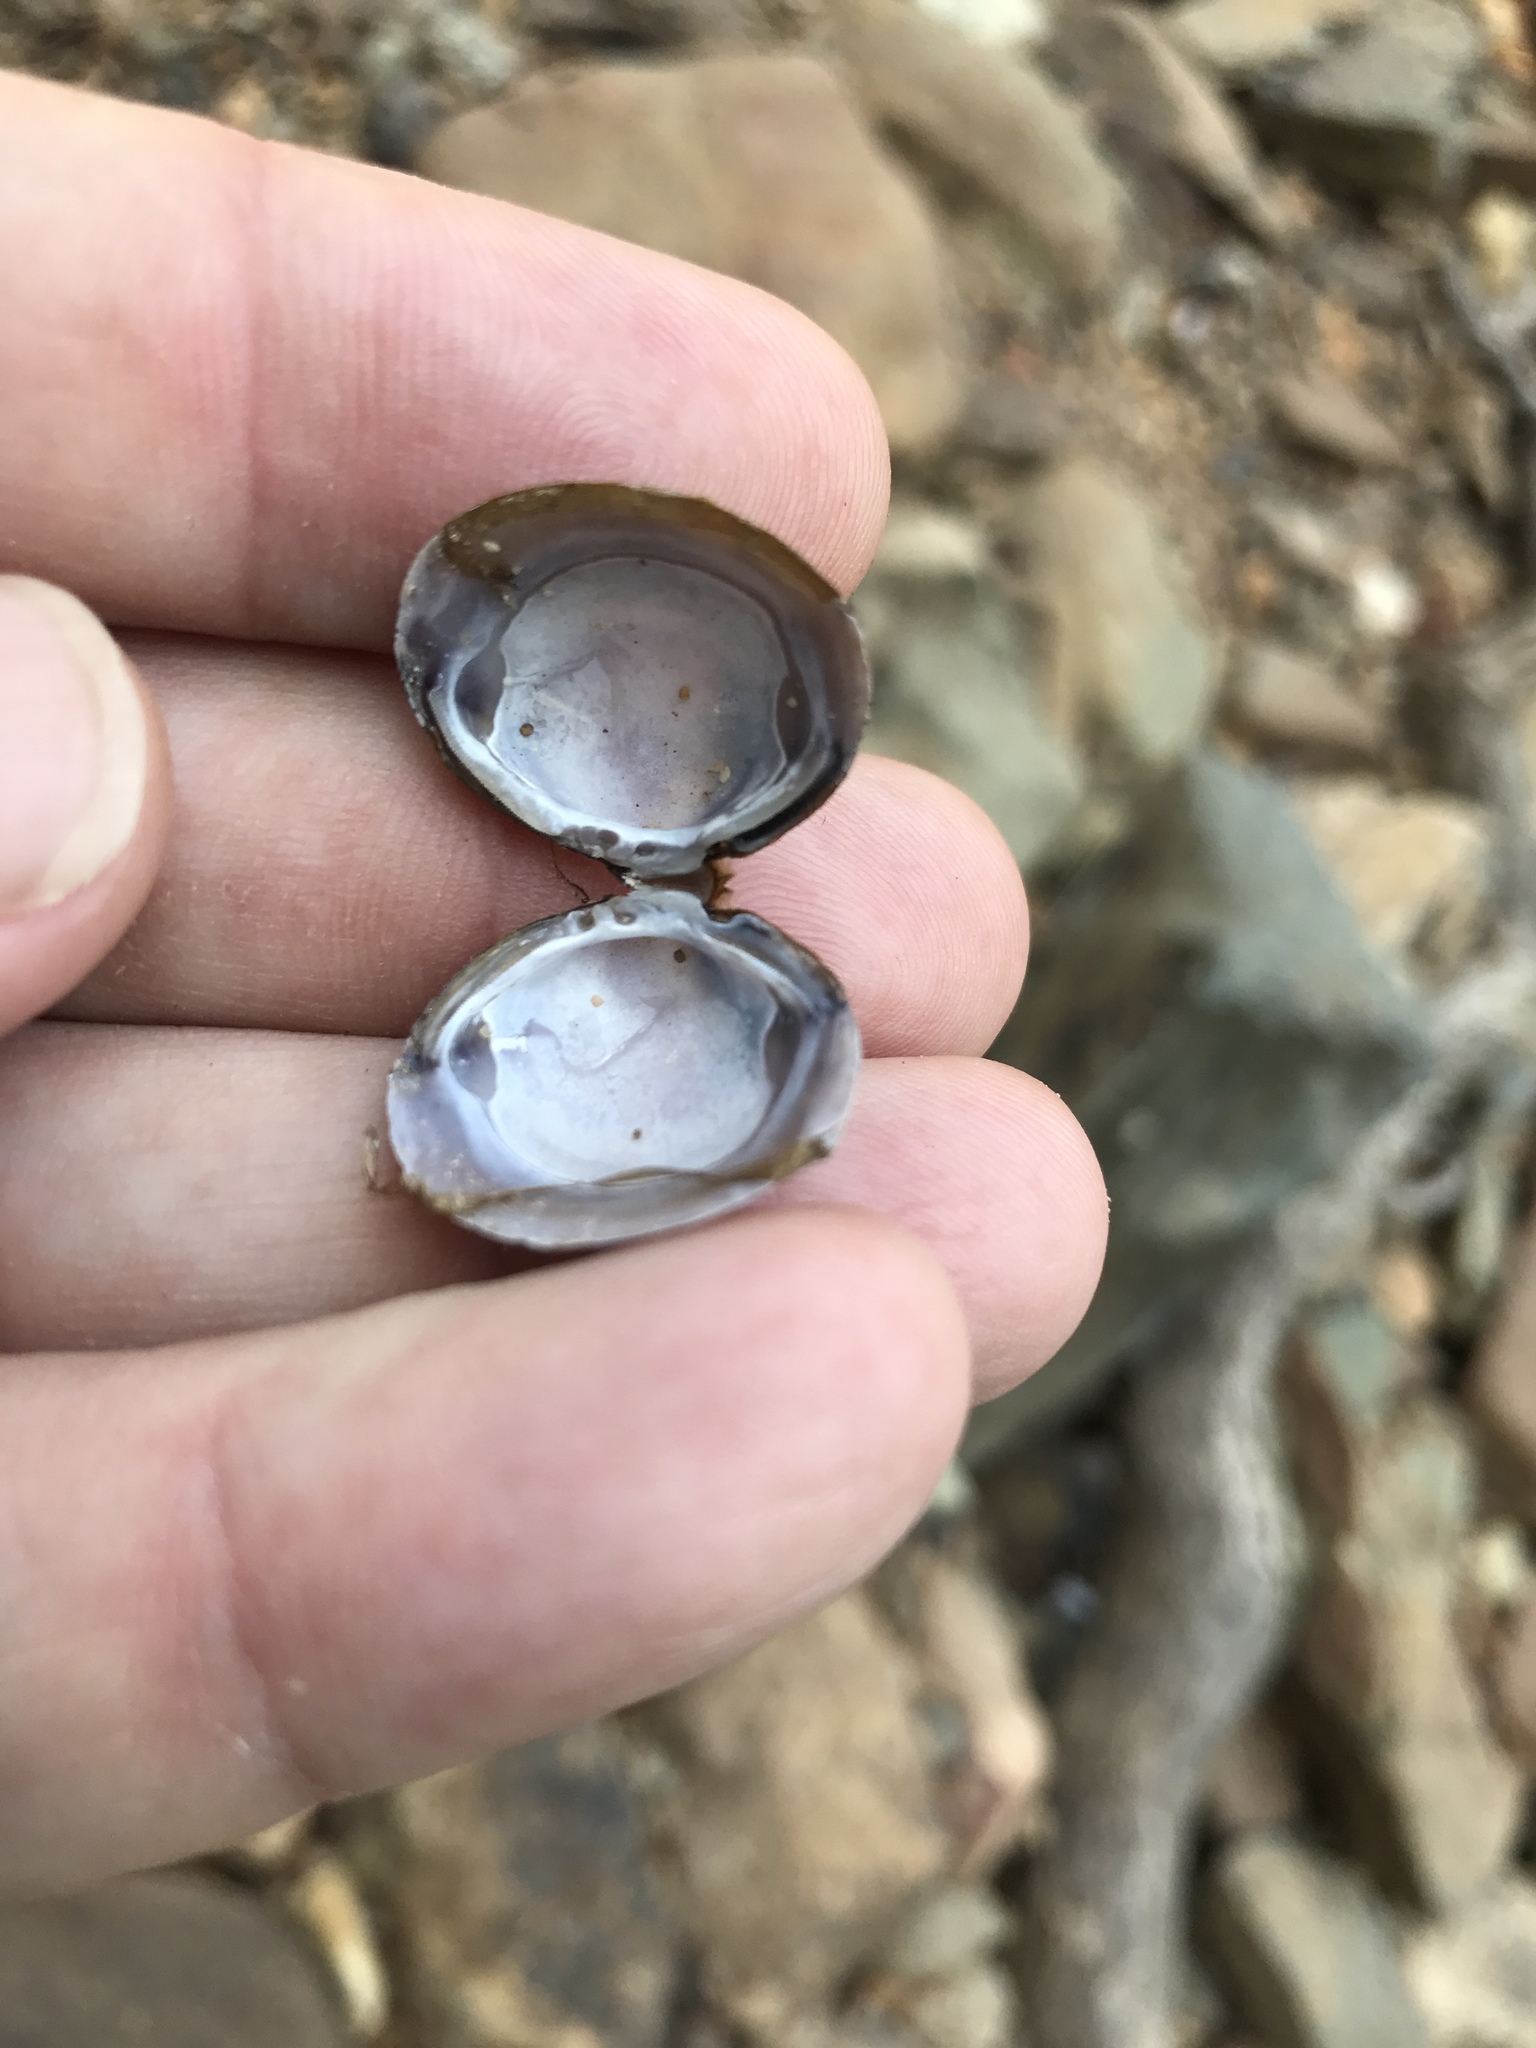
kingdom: Animalia
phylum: Mollusca
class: Bivalvia
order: Venerida
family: Cyrenidae
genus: Corbicula
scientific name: Corbicula fluminea
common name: Asian clam
